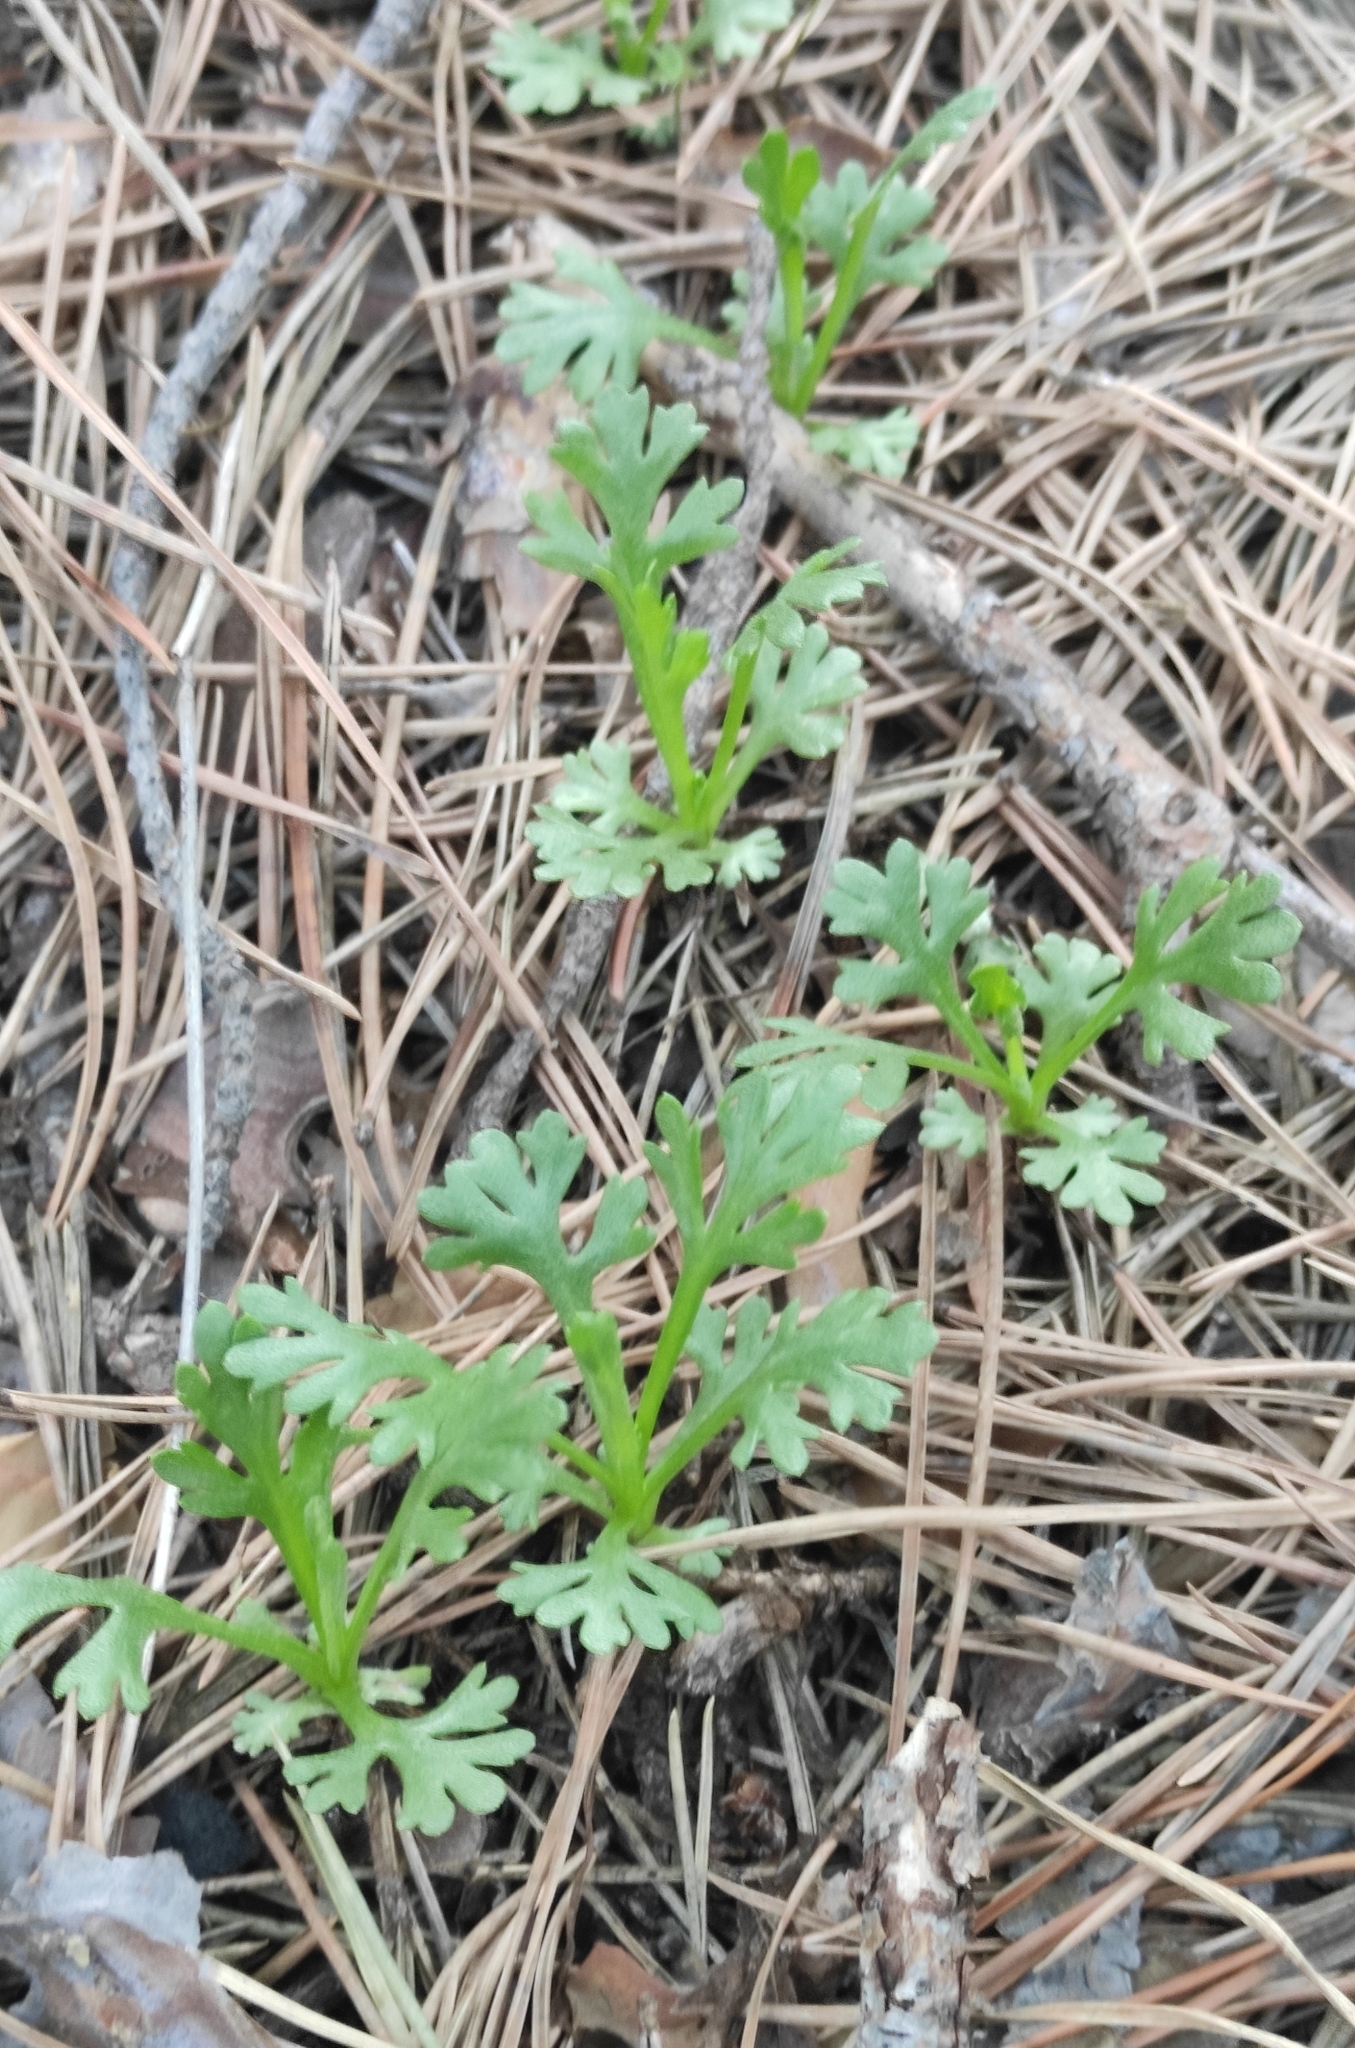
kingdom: Plantae
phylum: Tracheophyta
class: Magnoliopsida
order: Asterales
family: Asteraceae
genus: Chrysanthemum
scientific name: Chrysanthemum zawadzkii
